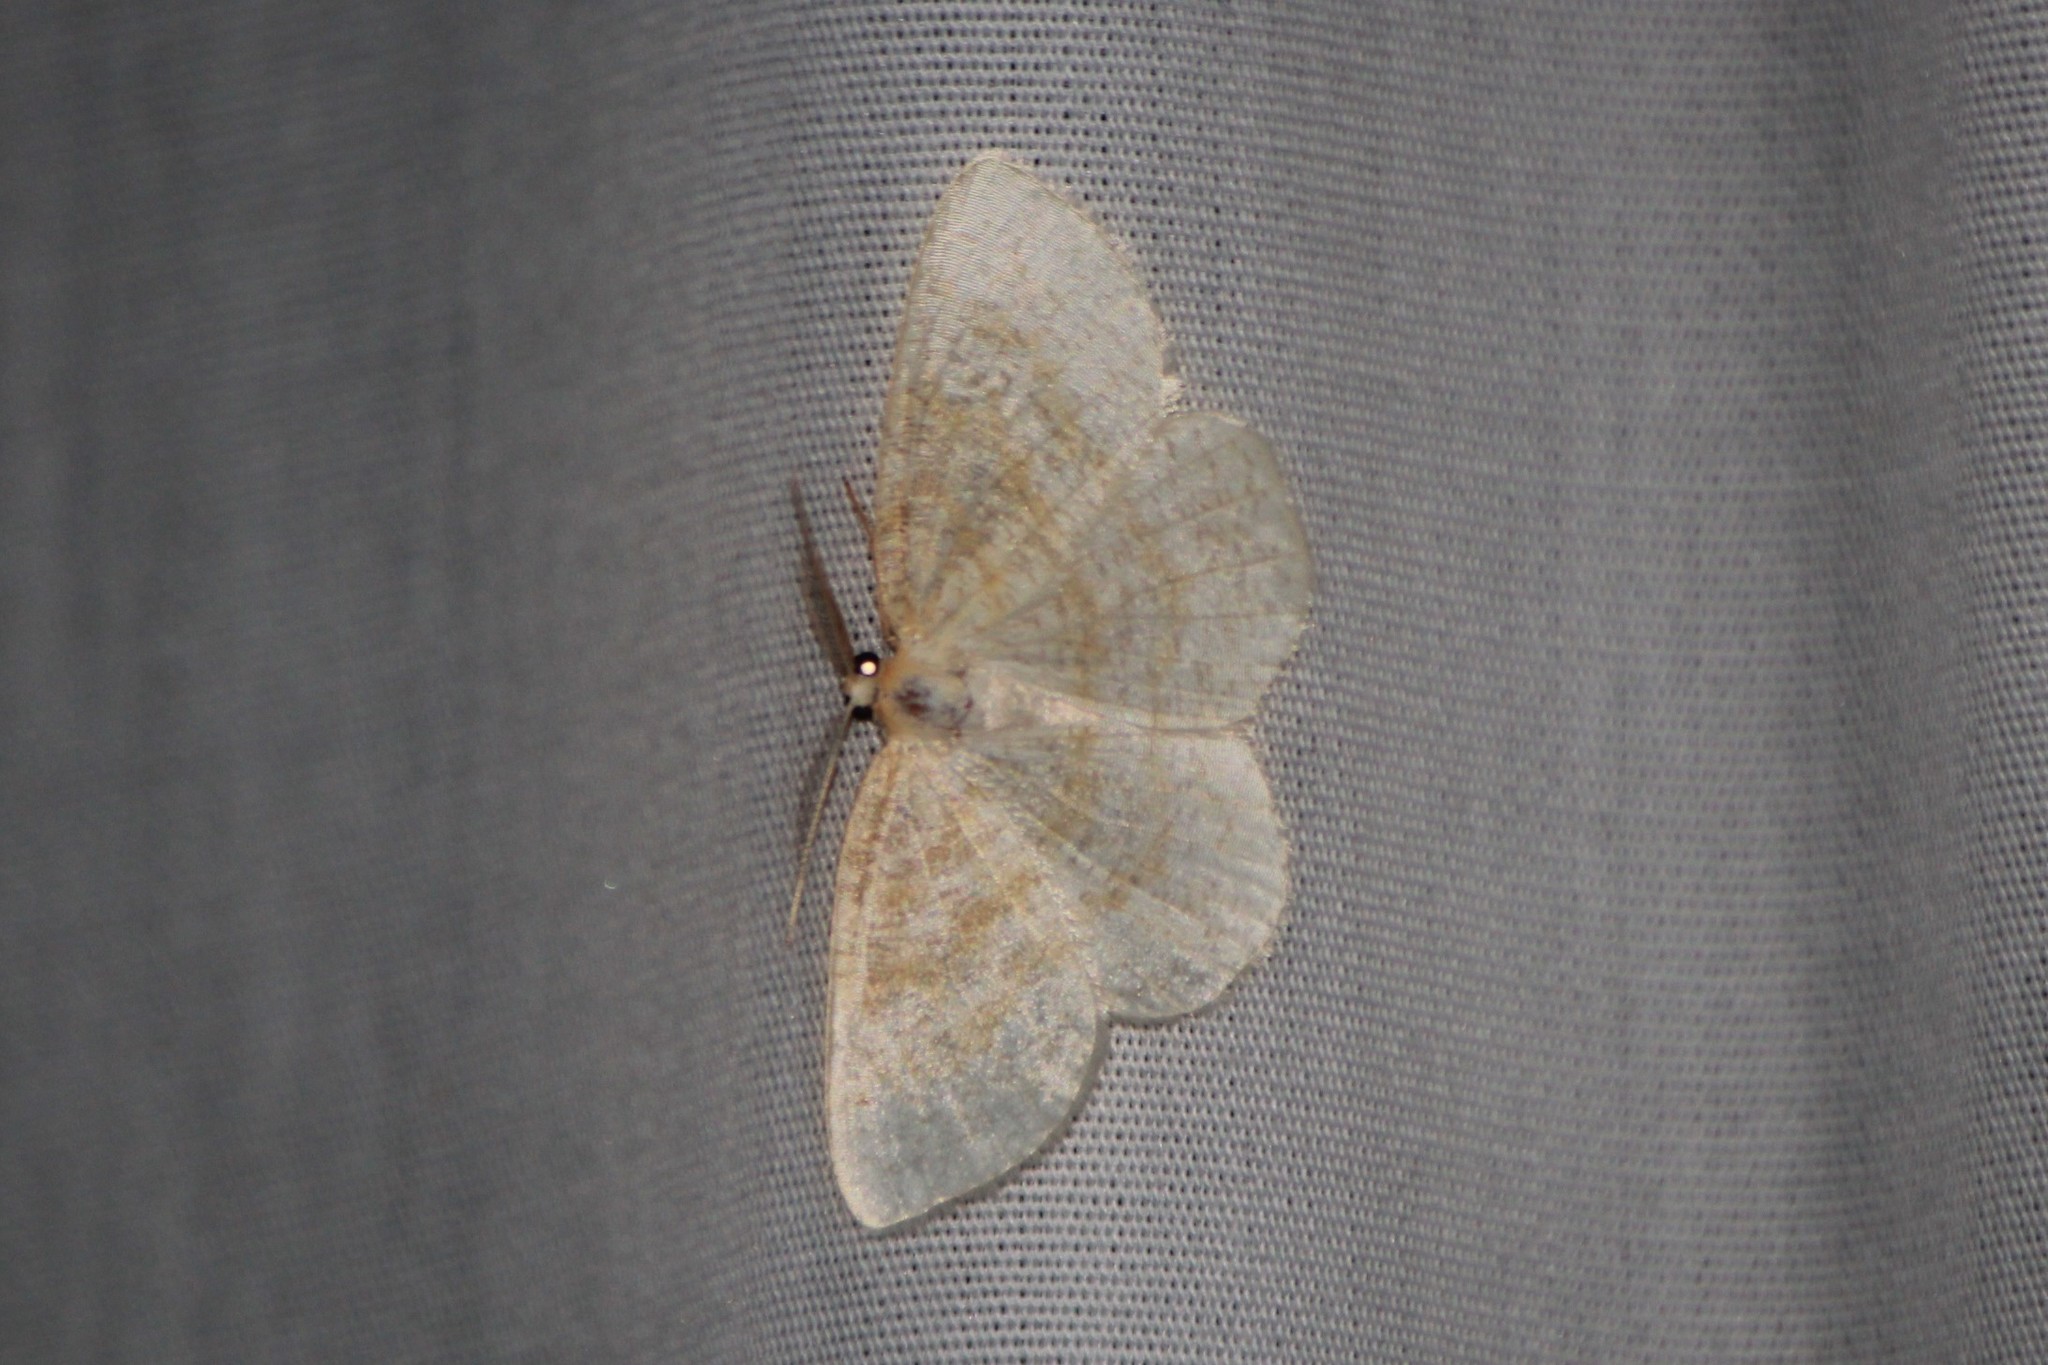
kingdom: Animalia
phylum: Arthropoda
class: Insecta
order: Lepidoptera
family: Geometridae
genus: Cabera
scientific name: Cabera erythemaria
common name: Yellow-dusted cream moth
